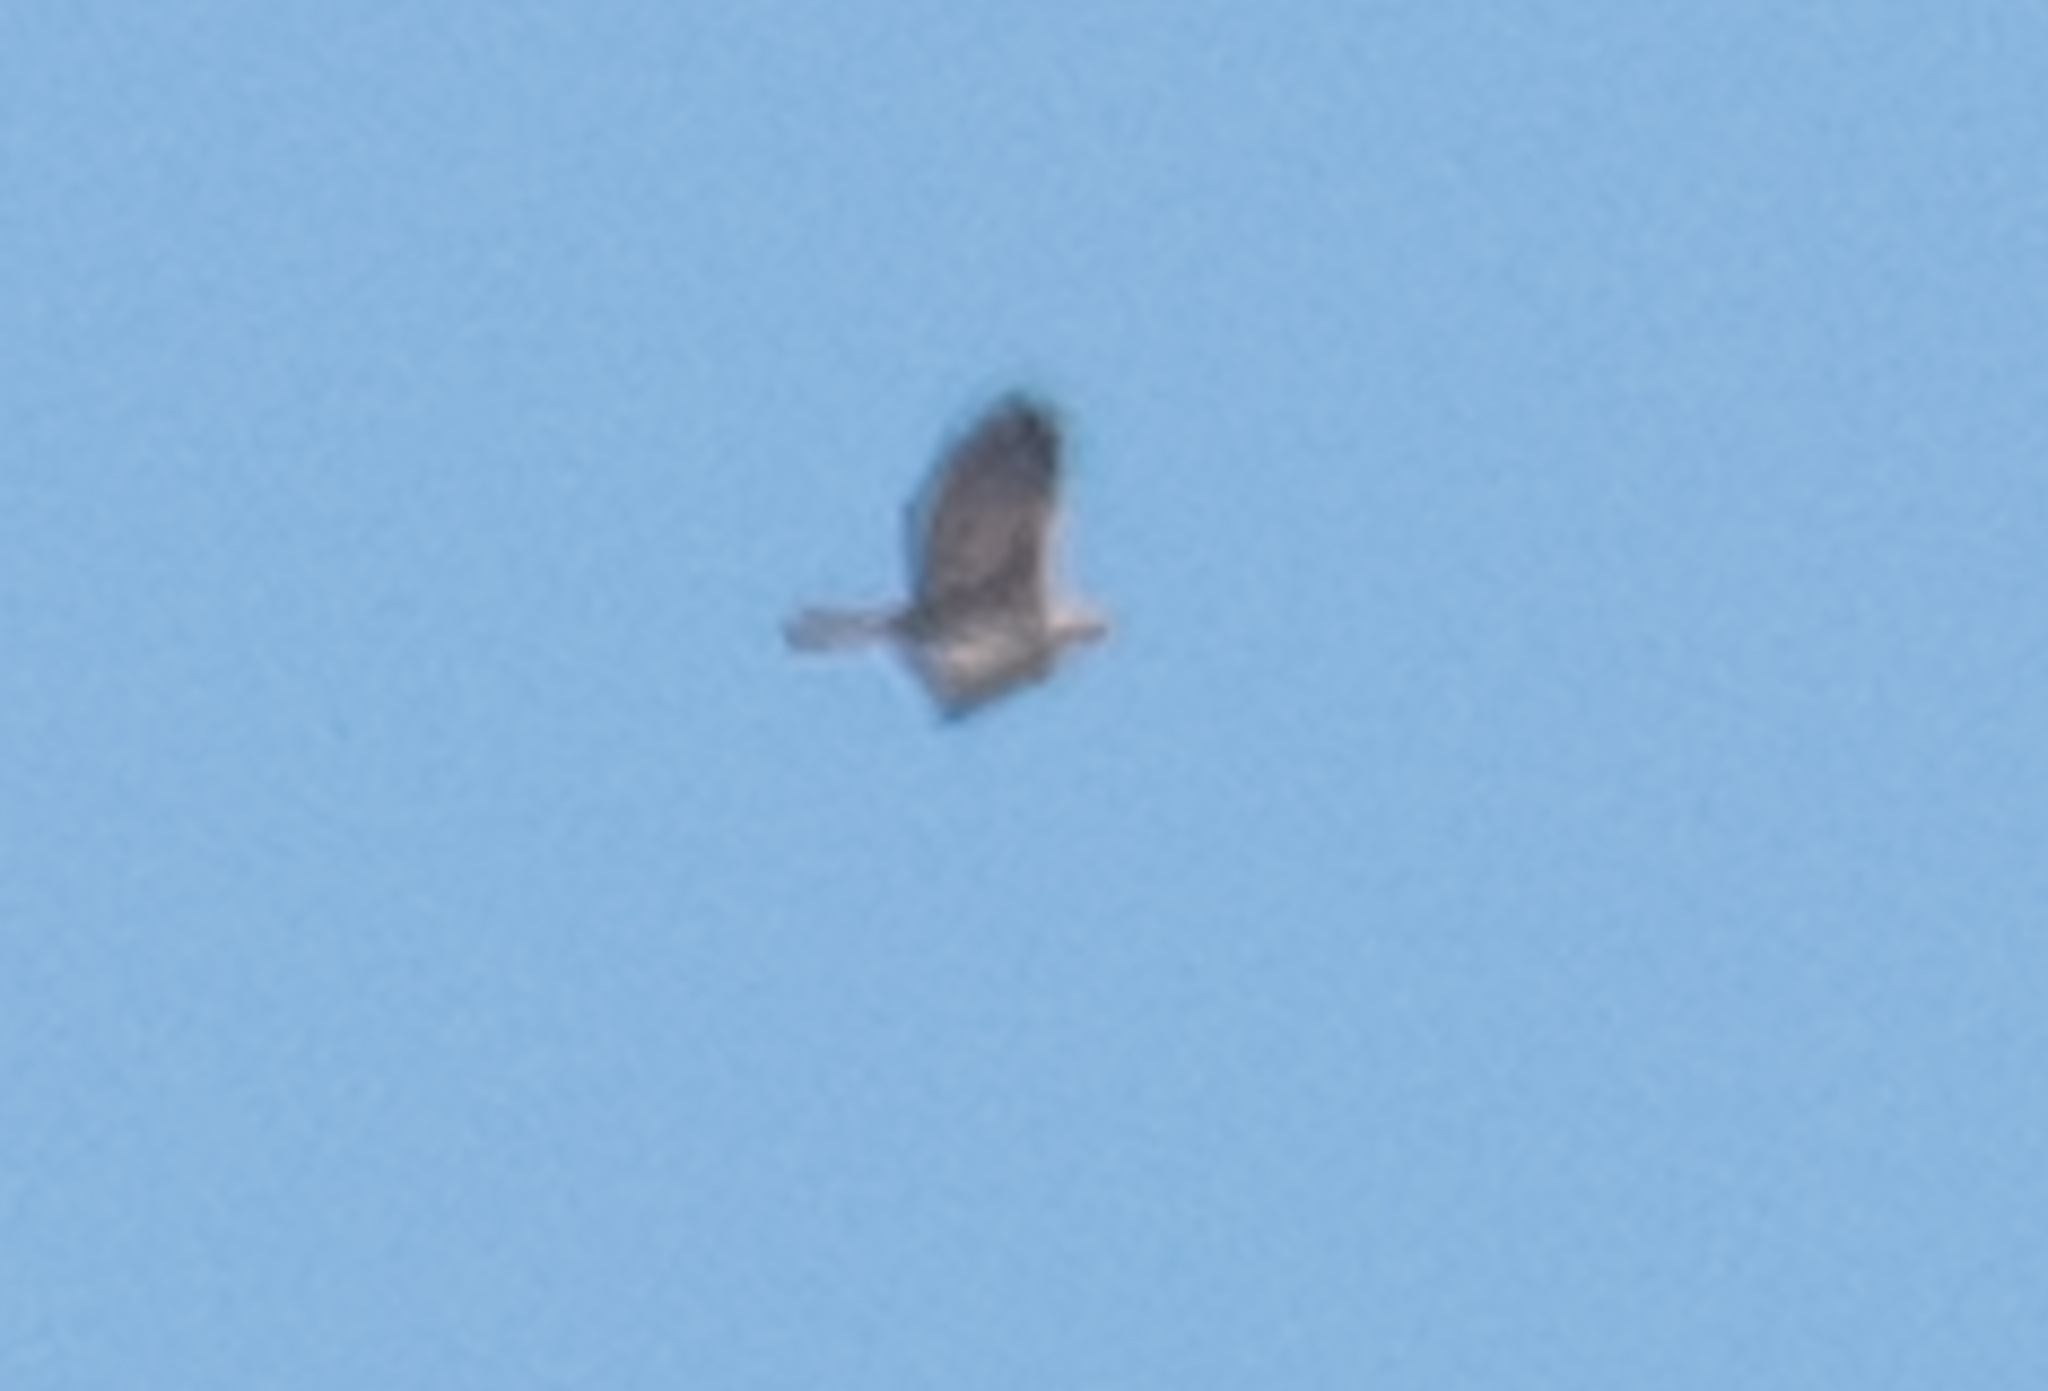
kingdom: Animalia
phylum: Chordata
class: Aves
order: Accipitriformes
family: Accipitridae
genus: Aquila
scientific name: Aquila chrysaetos
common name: Golden eagle
